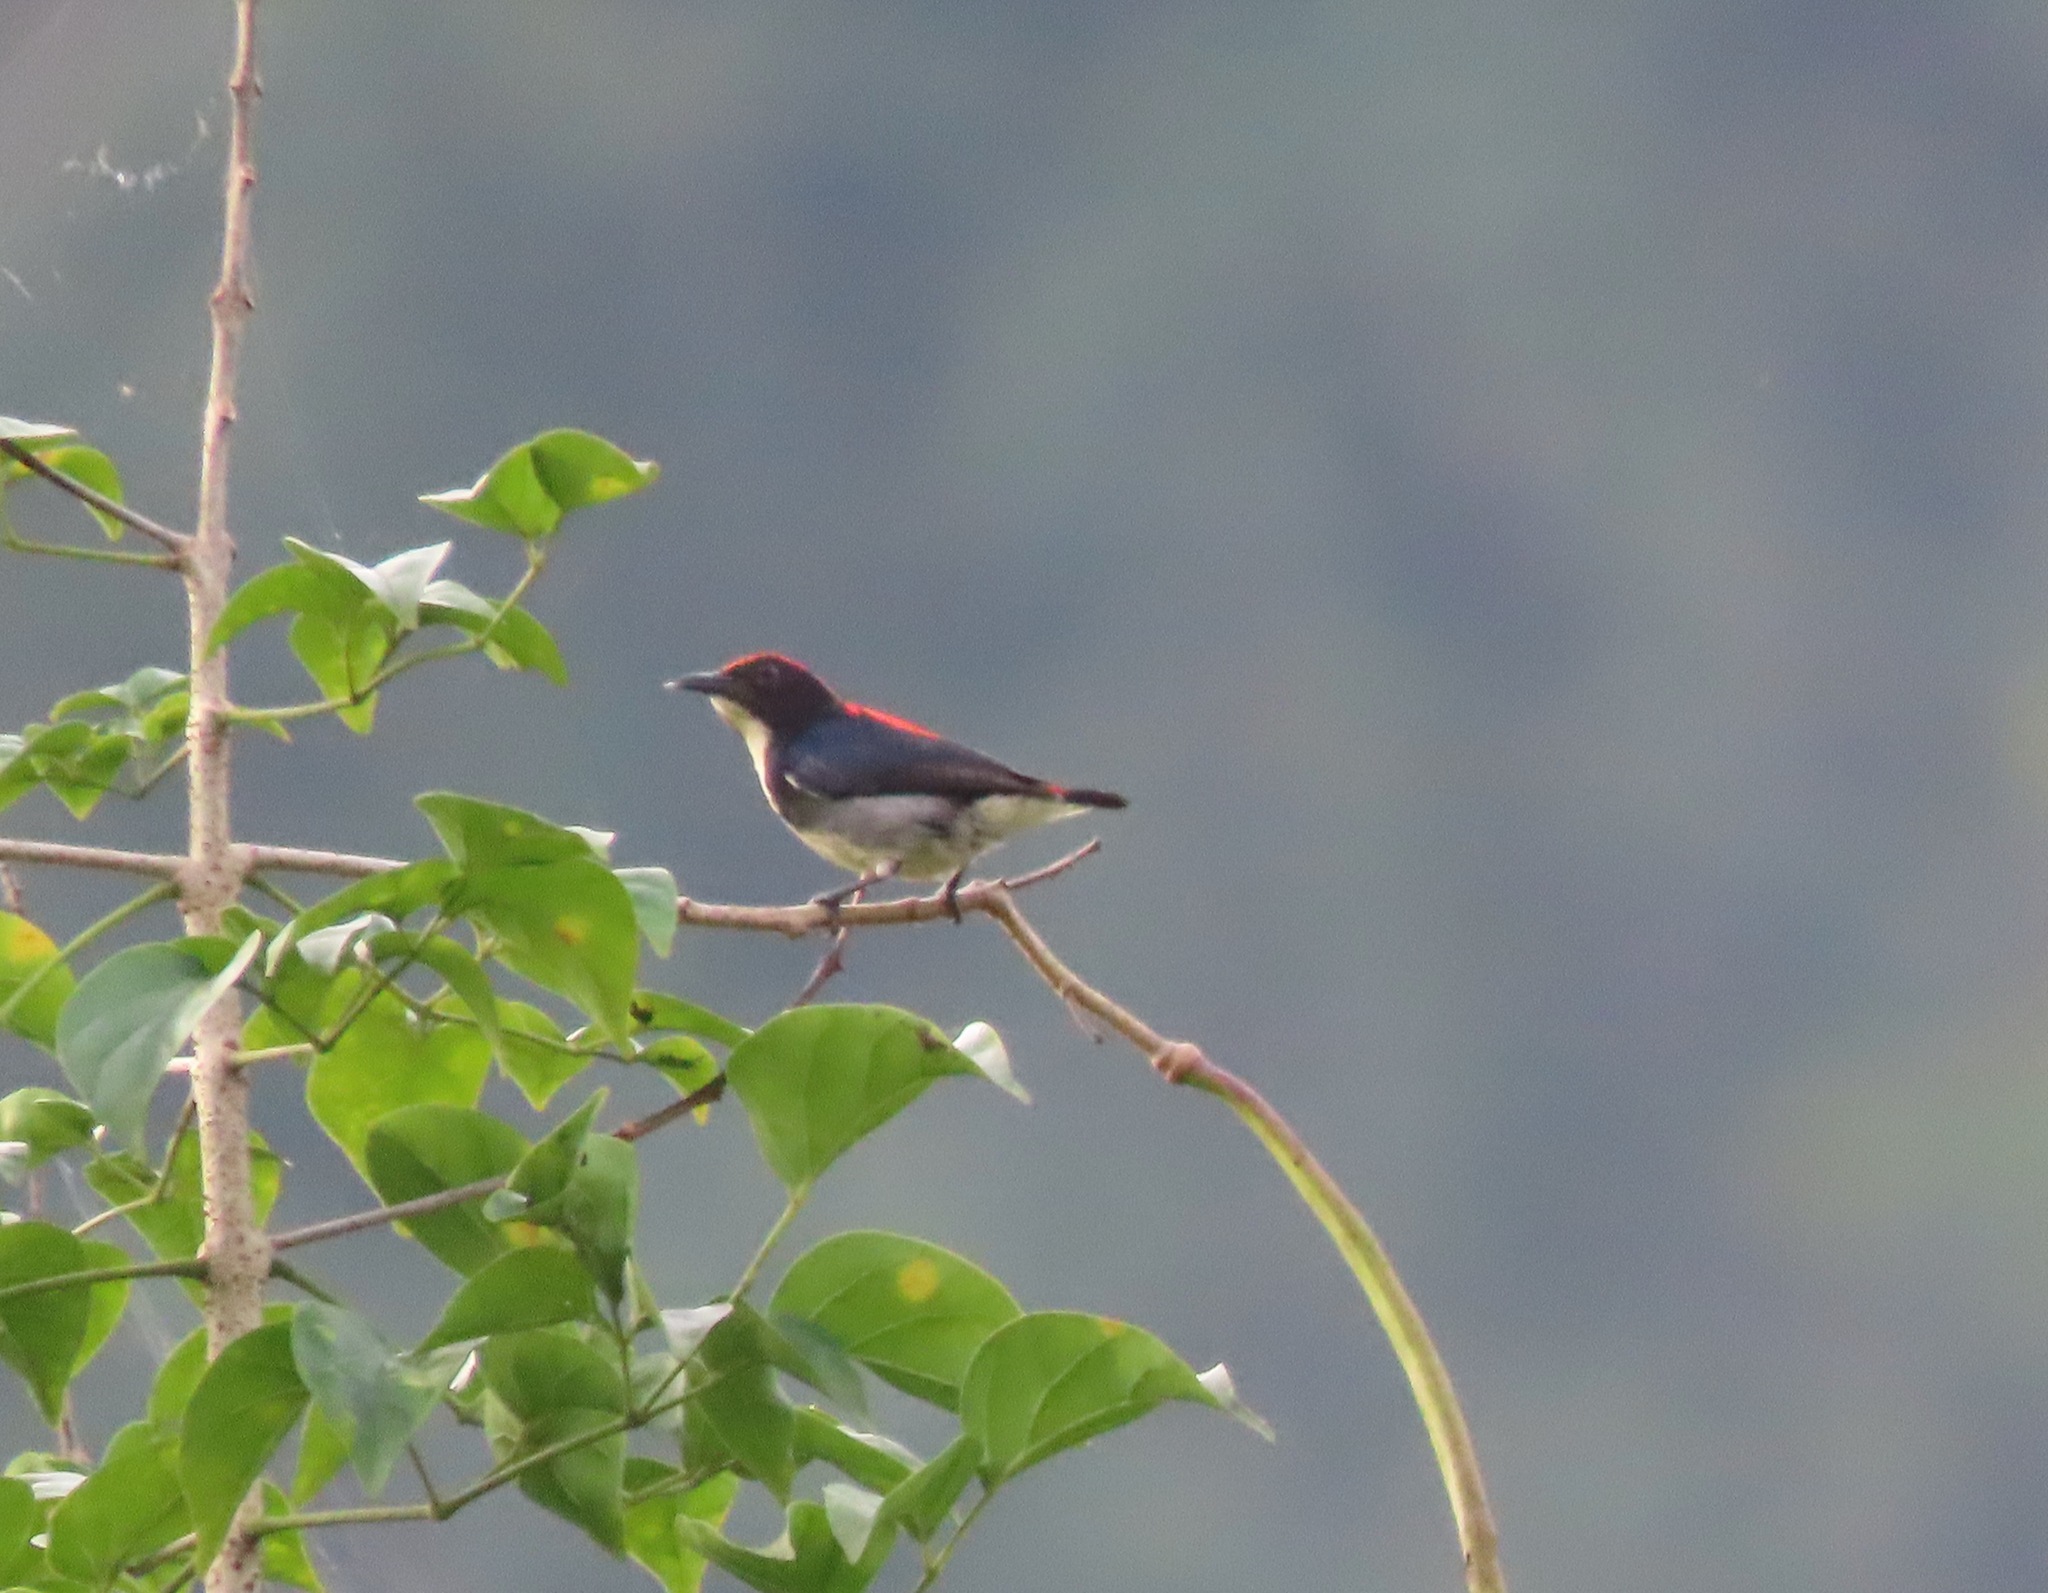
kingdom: Animalia
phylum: Chordata
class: Aves
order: Passeriformes
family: Dicaeidae
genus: Dicaeum
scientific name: Dicaeum cruentatum
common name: Scarlet-backed flowerpecker
